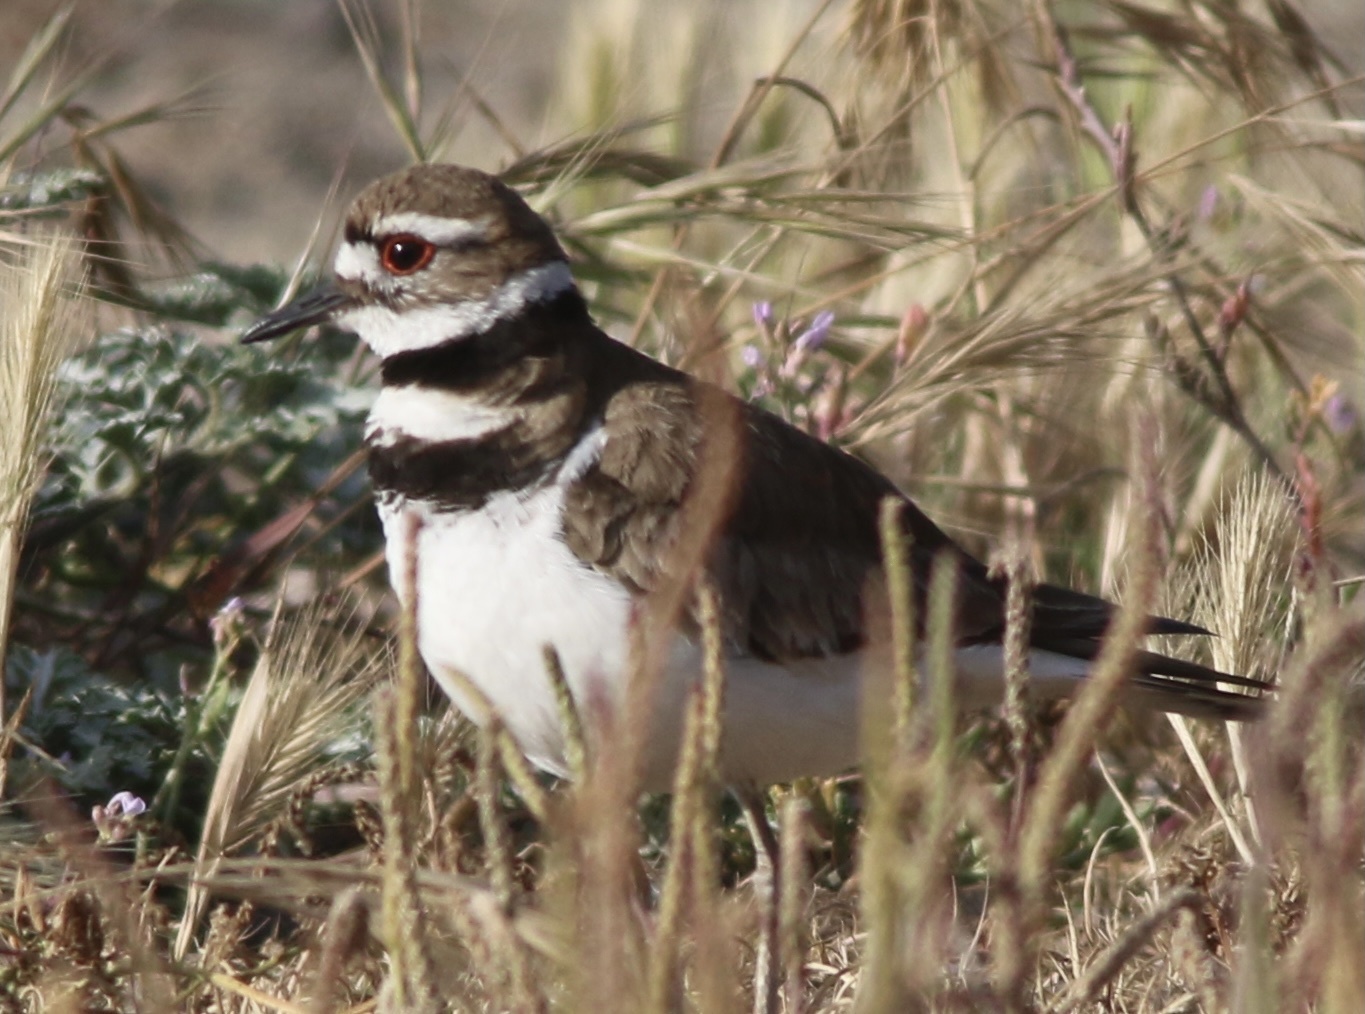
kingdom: Animalia
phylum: Chordata
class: Aves
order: Charadriiformes
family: Charadriidae
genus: Charadrius
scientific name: Charadrius vociferus
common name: Killdeer
